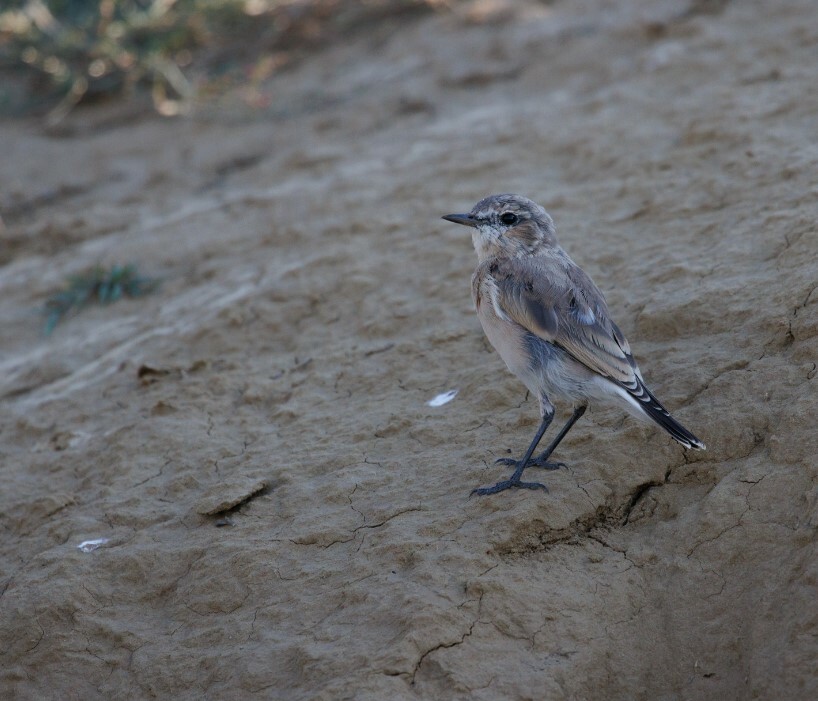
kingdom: Animalia
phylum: Chordata
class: Aves
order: Passeriformes
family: Muscicapidae
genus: Oenanthe
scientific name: Oenanthe oenanthe
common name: Northern wheatear
